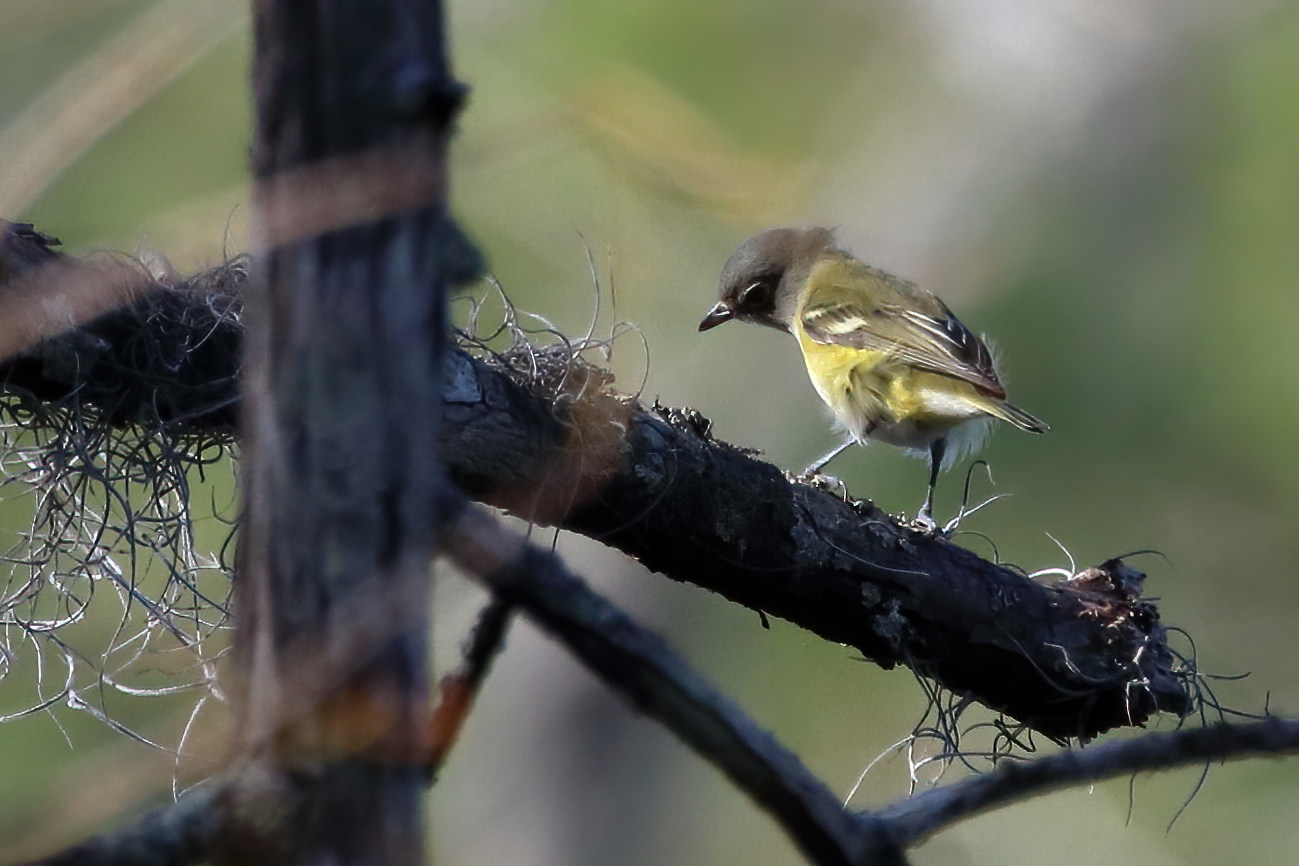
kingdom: Animalia
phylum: Chordata
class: Aves
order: Passeriformes
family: Vireonidae
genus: Vireo
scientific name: Vireo solitarius
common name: Blue-headed vireo
